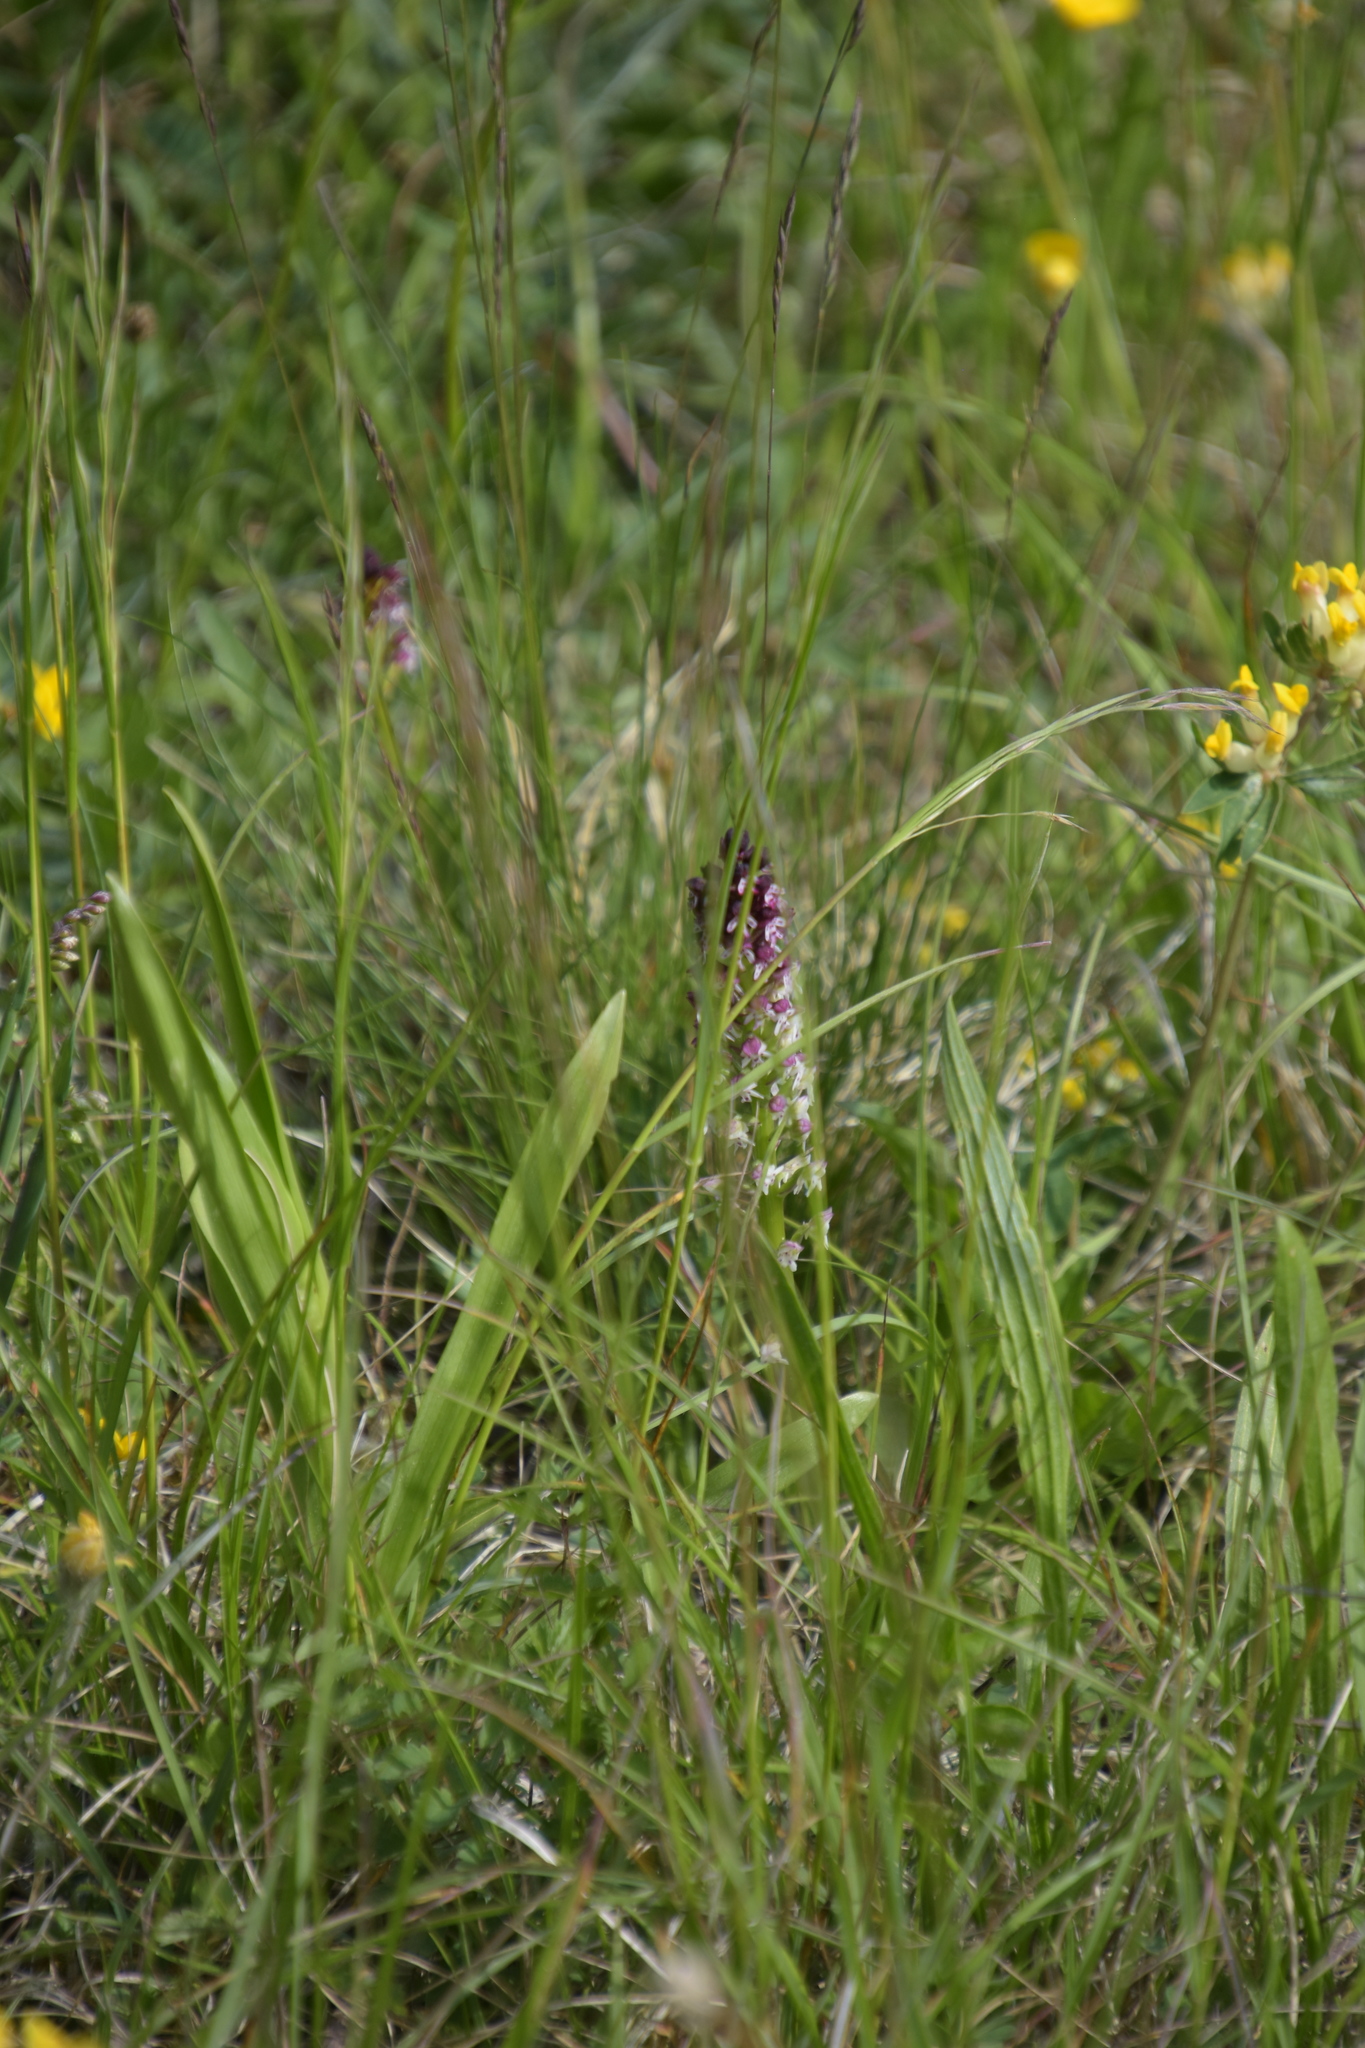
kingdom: Plantae
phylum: Tracheophyta
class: Liliopsida
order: Asparagales
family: Orchidaceae
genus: Neotinea
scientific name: Neotinea ustulata
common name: Burnt orchid
